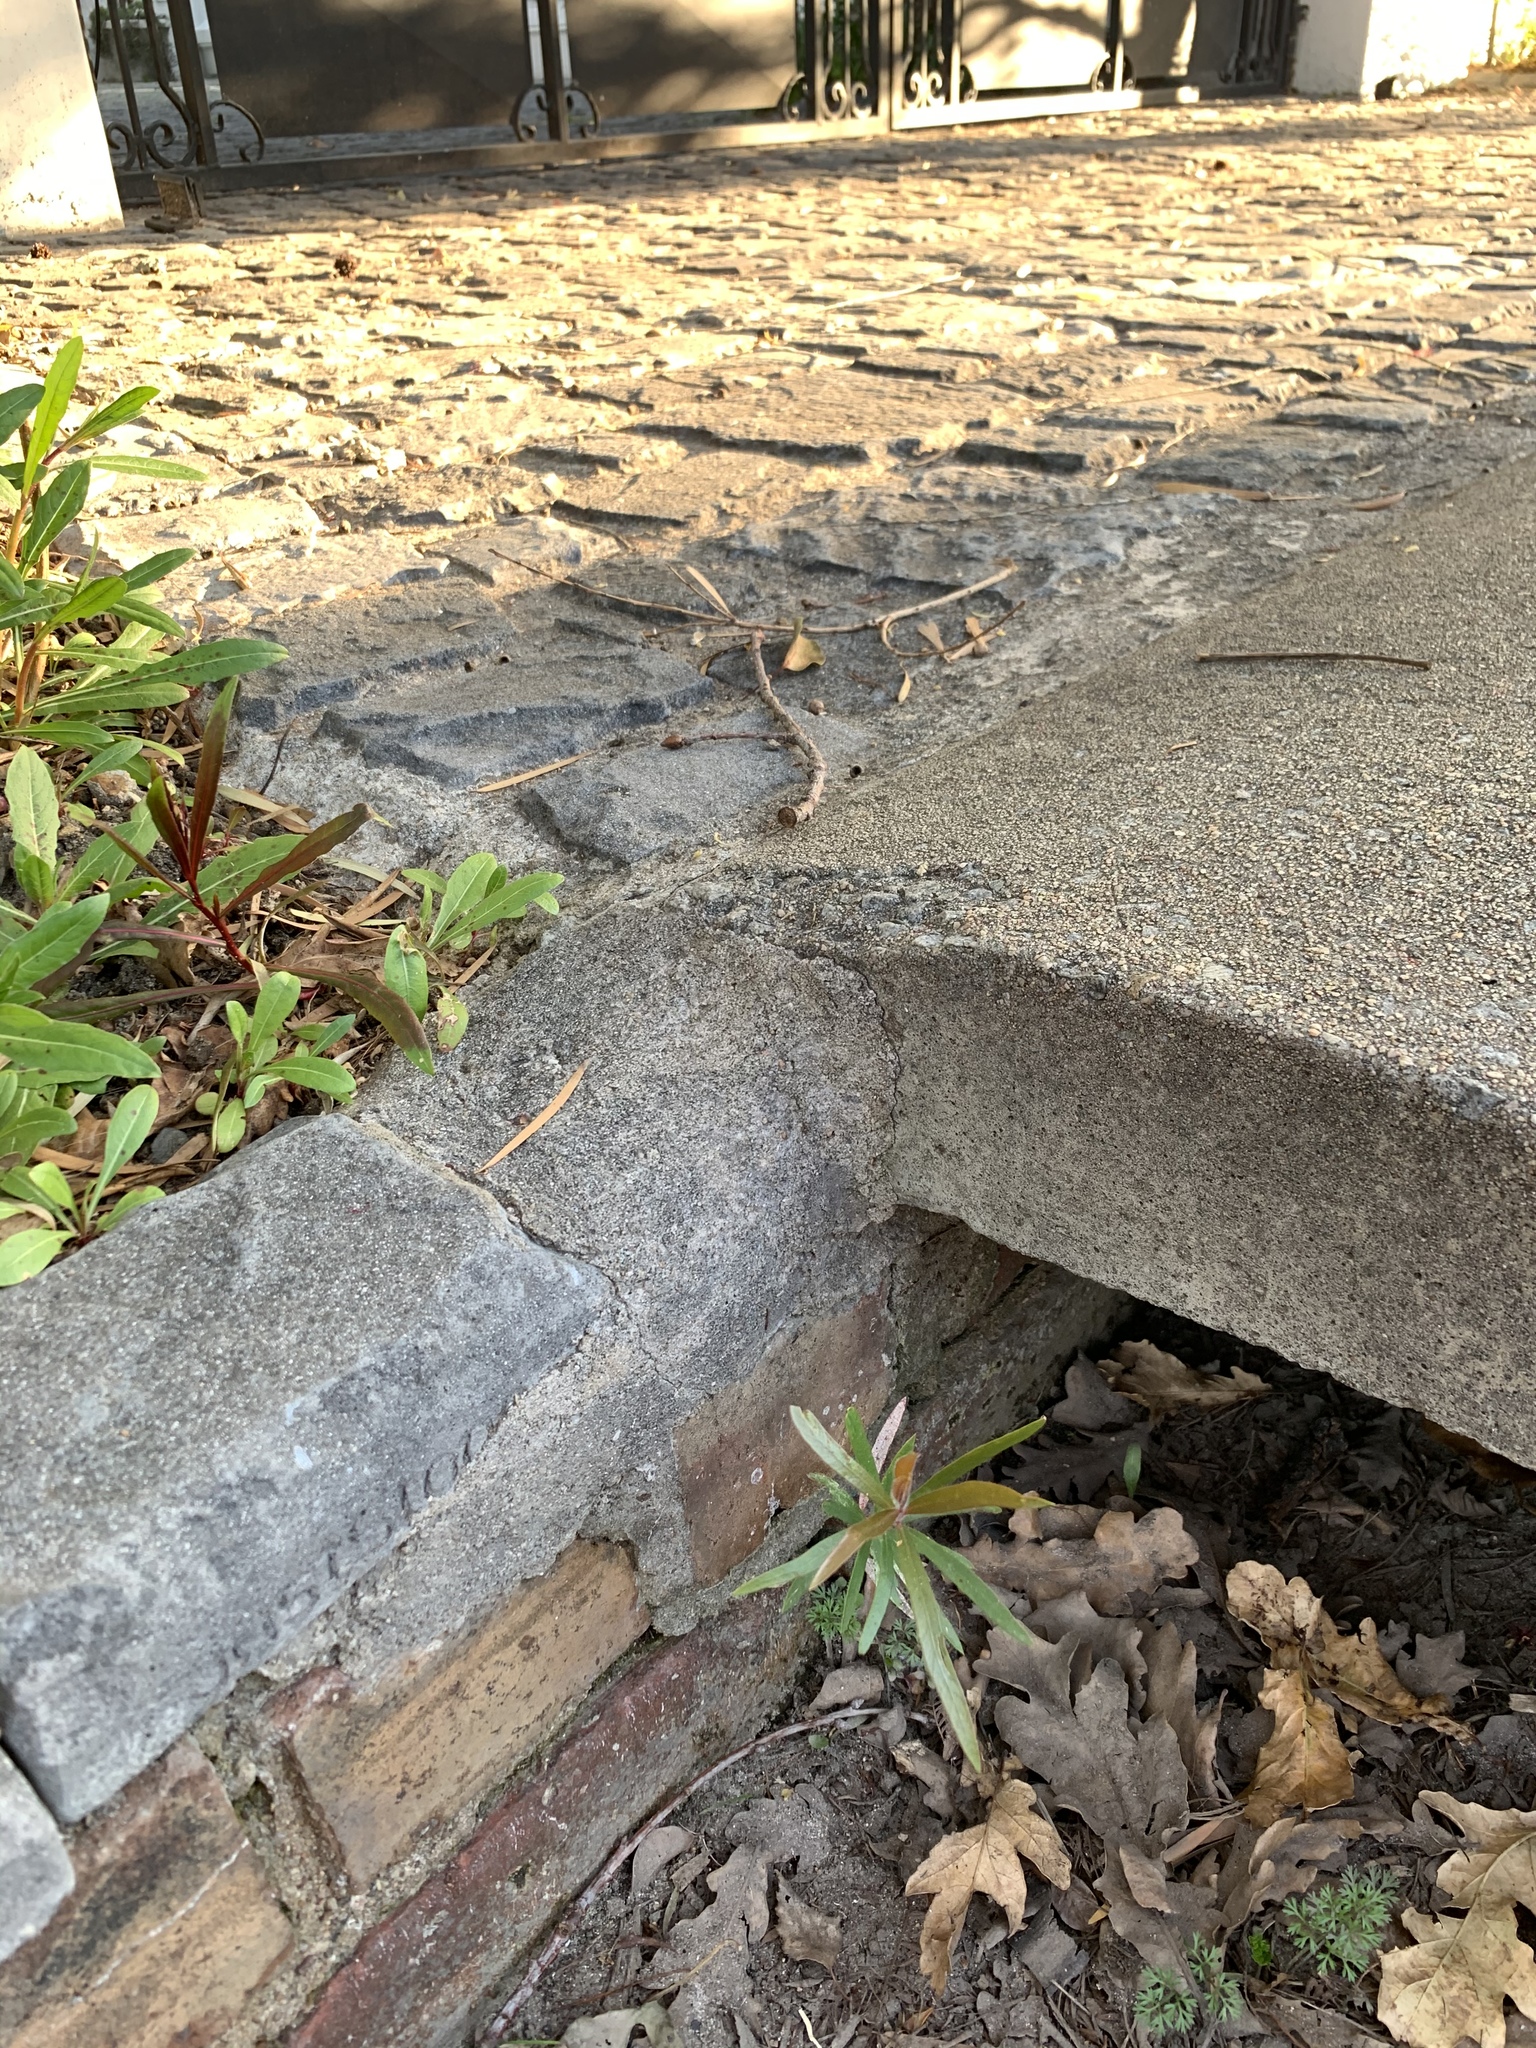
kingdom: Plantae
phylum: Tracheophyta
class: Magnoliopsida
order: Myrtales
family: Myrtaceae
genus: Callistemon
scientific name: Callistemon viminalis
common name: Drooping bottlebrush
